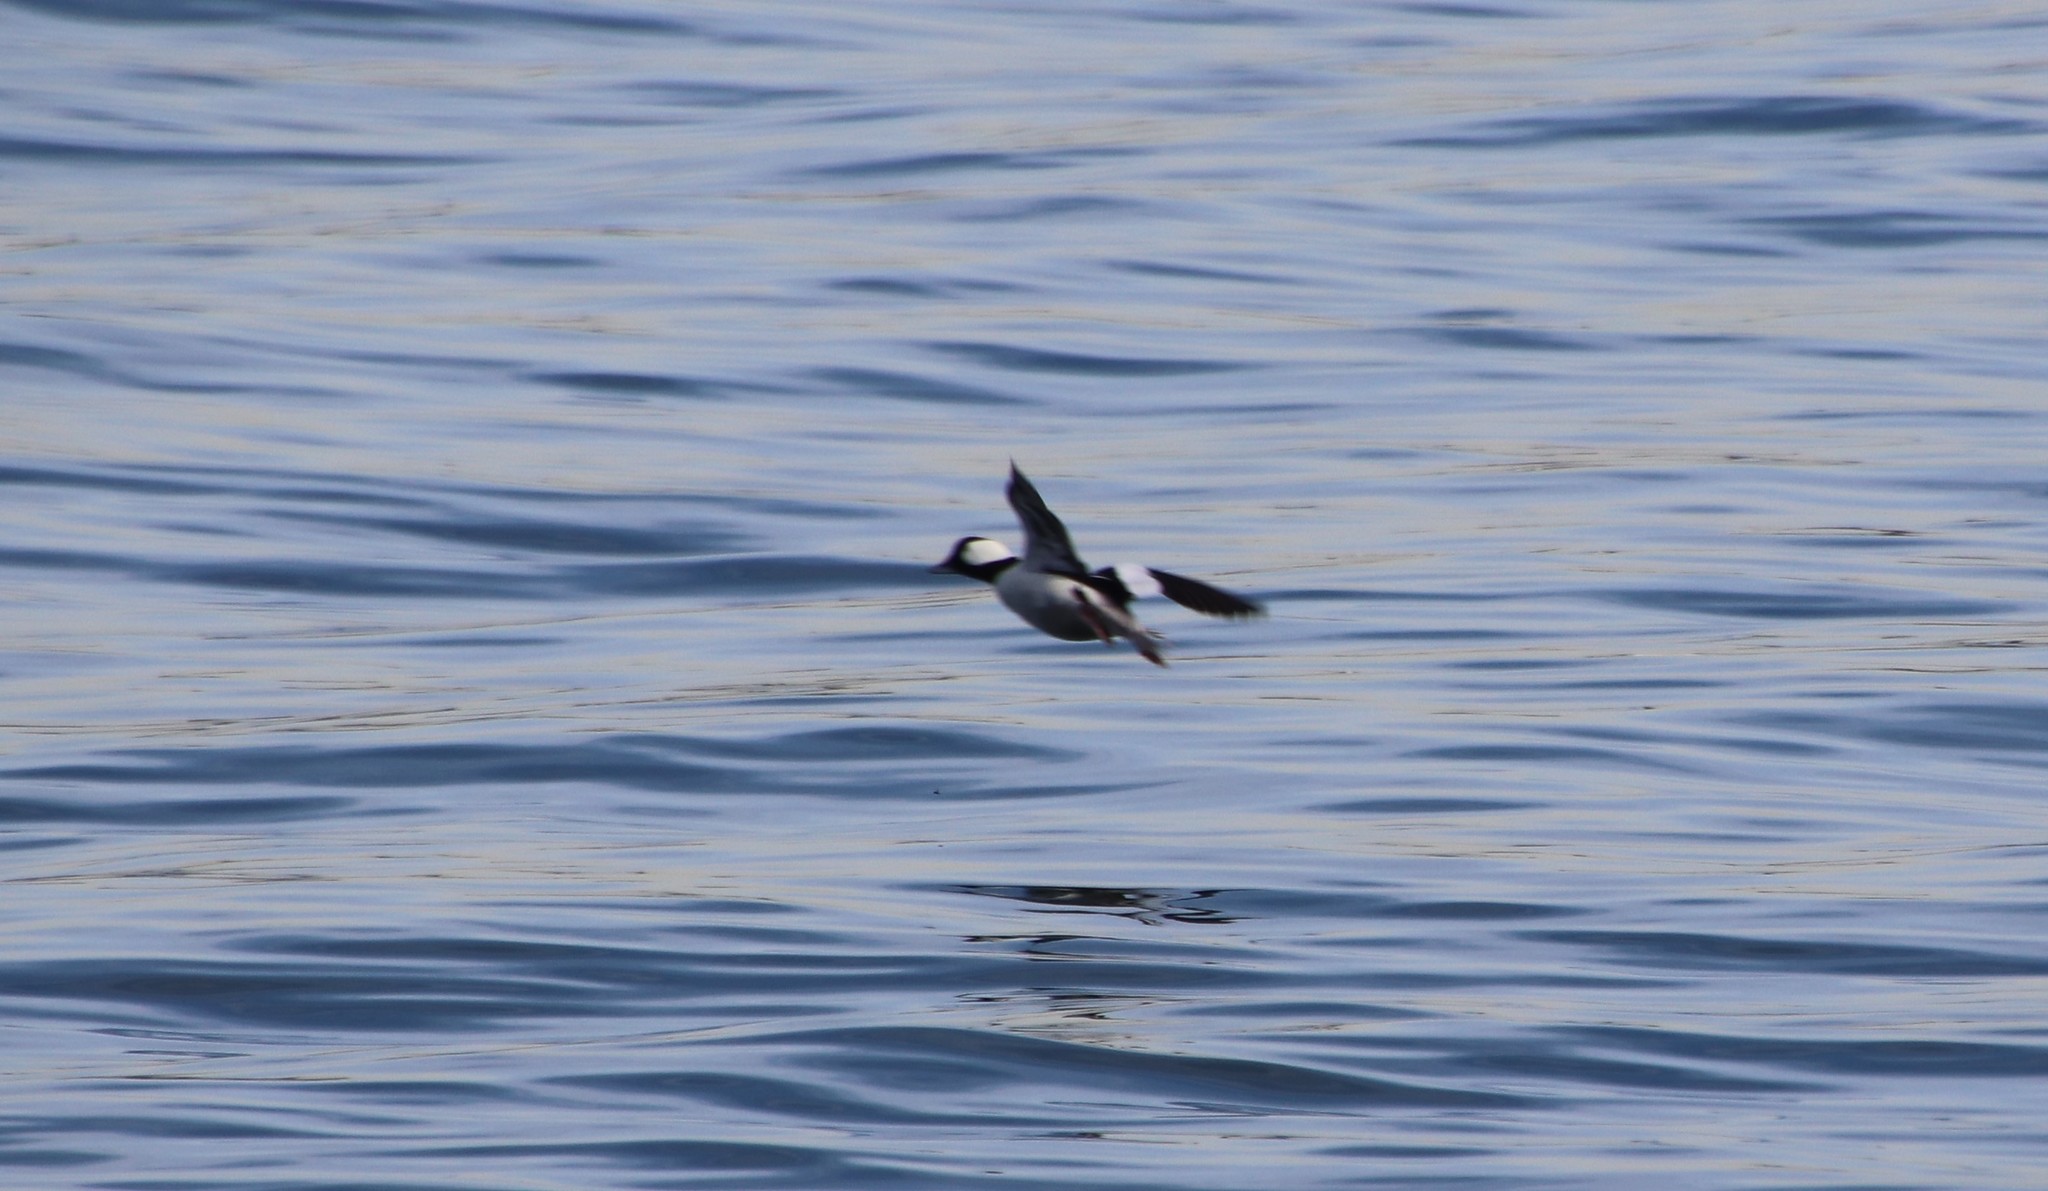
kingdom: Animalia
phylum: Chordata
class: Aves
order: Anseriformes
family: Anatidae
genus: Bucephala
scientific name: Bucephala albeola
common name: Bufflehead
